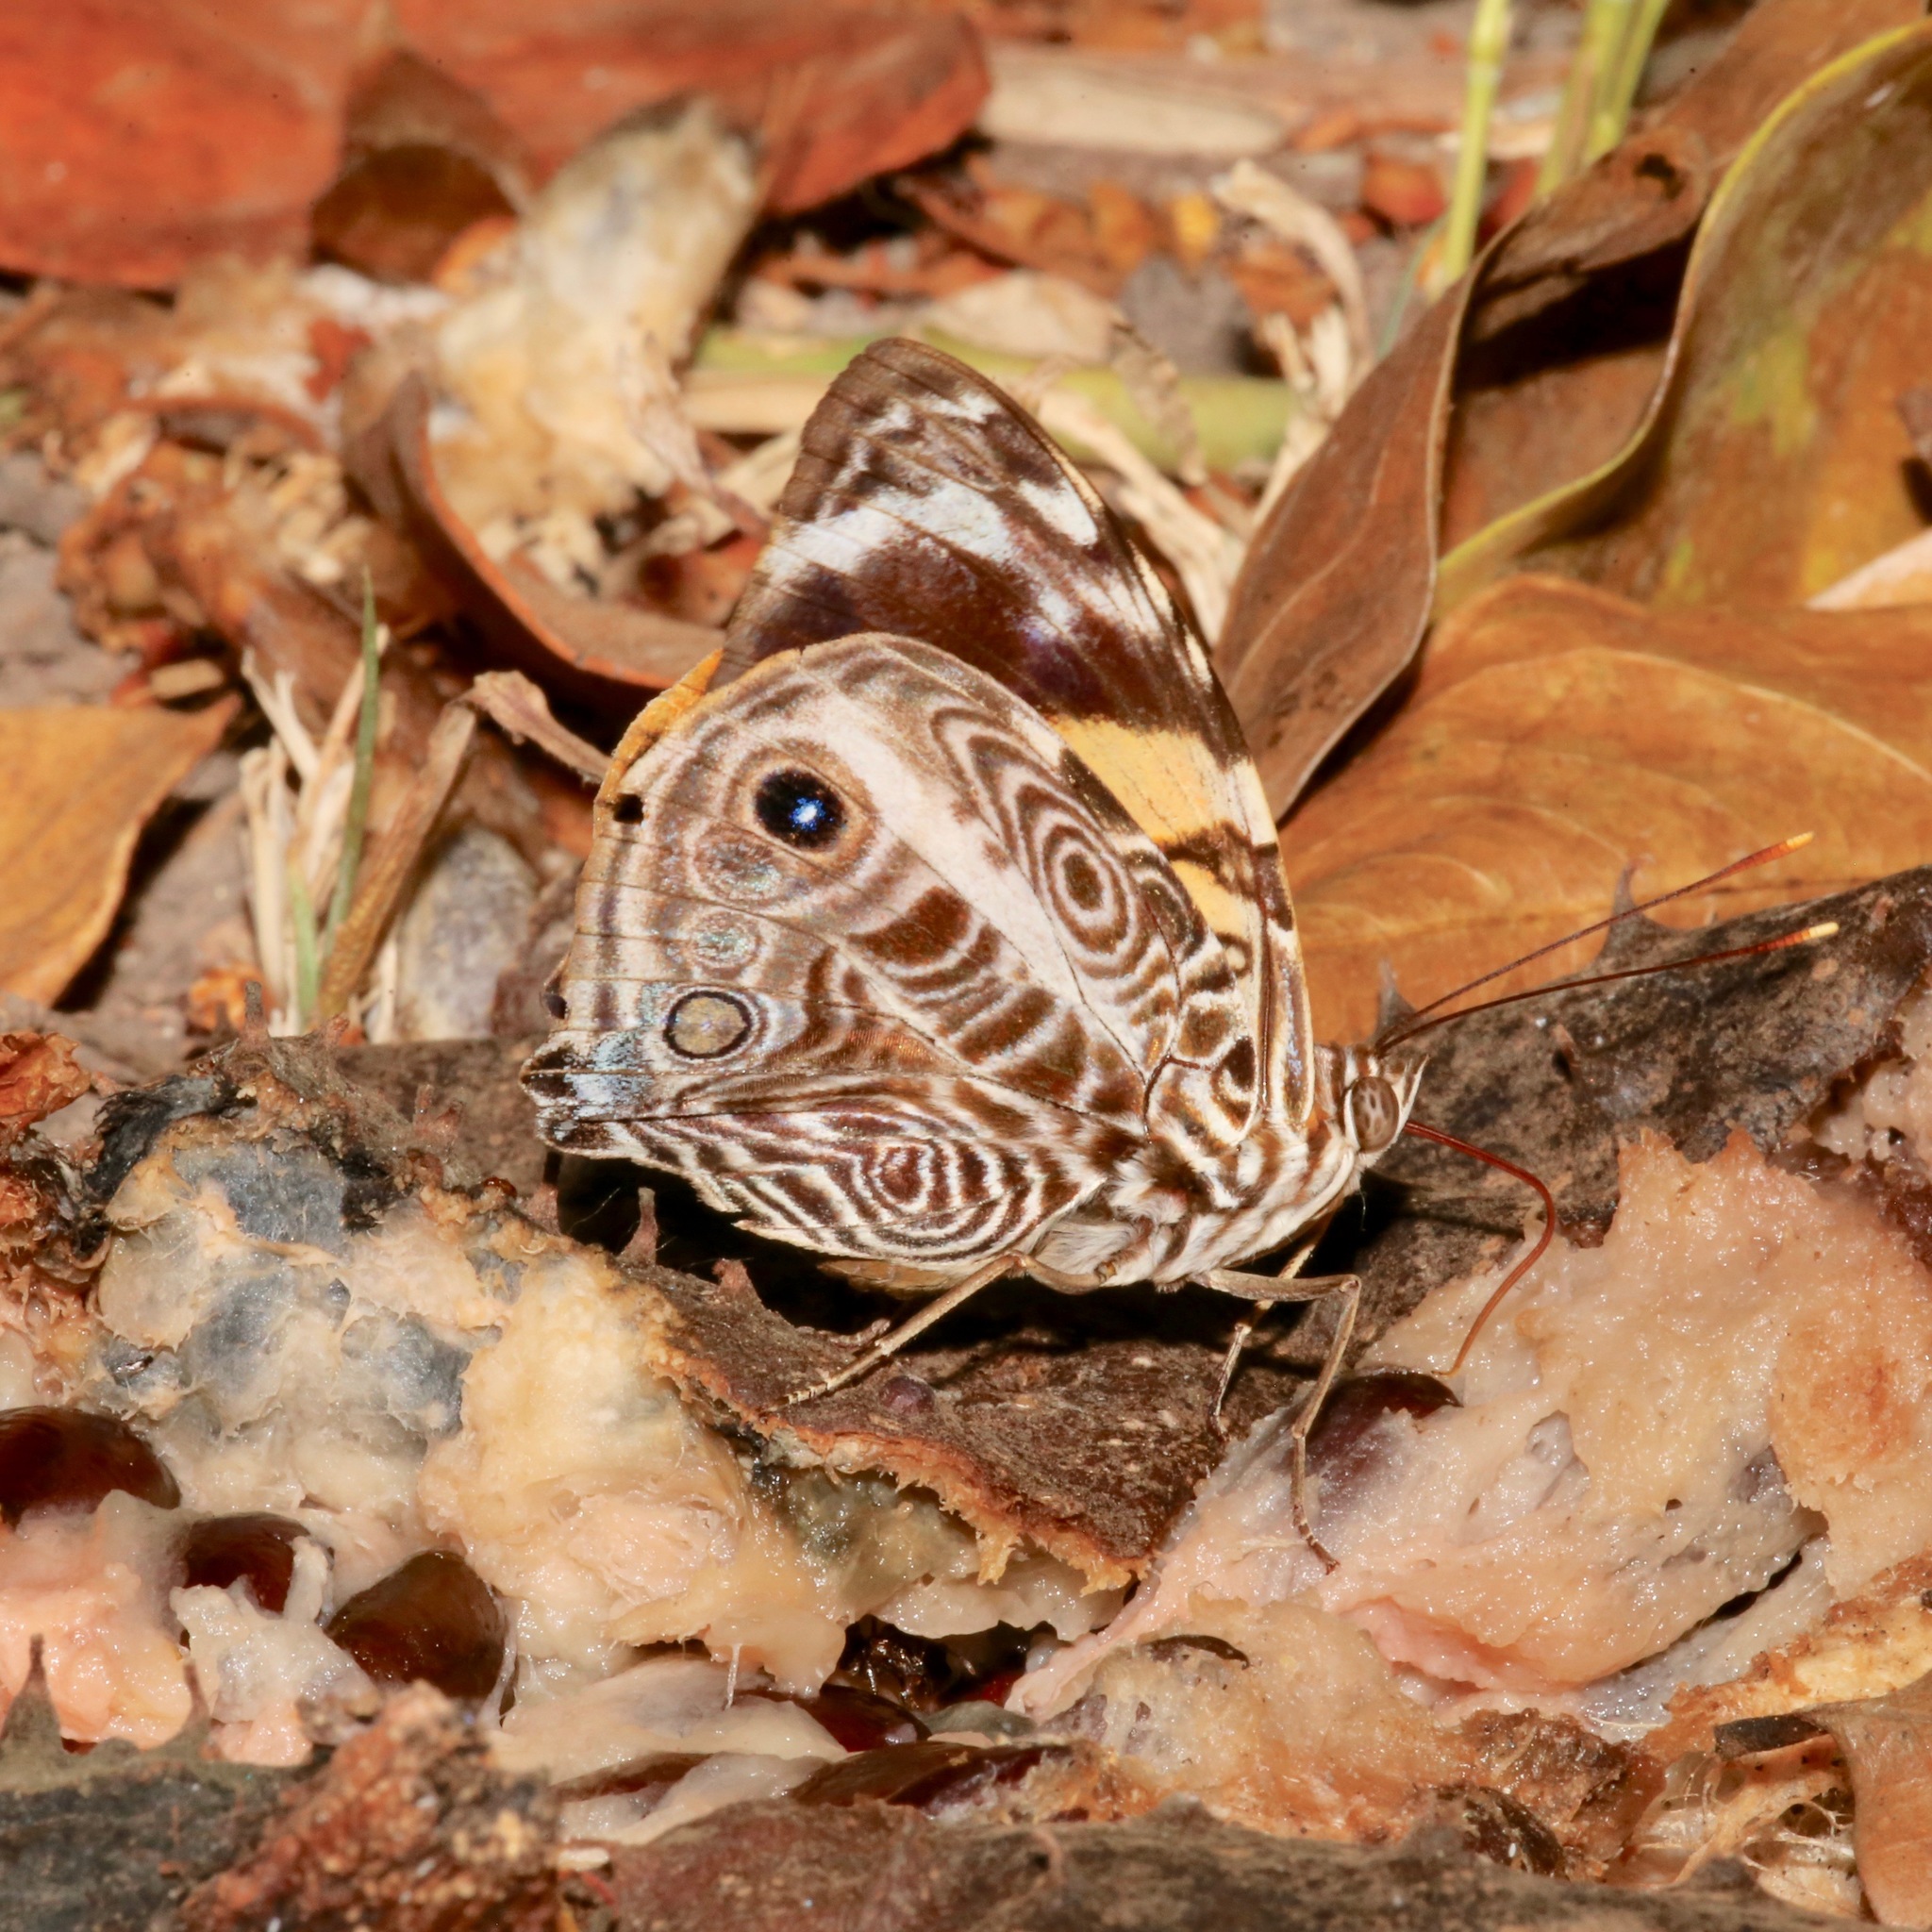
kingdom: Animalia
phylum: Arthropoda
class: Insecta
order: Lepidoptera
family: Nymphalidae
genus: Smyrna
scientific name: Smyrna blomfildia
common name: Blomfild's beauty
